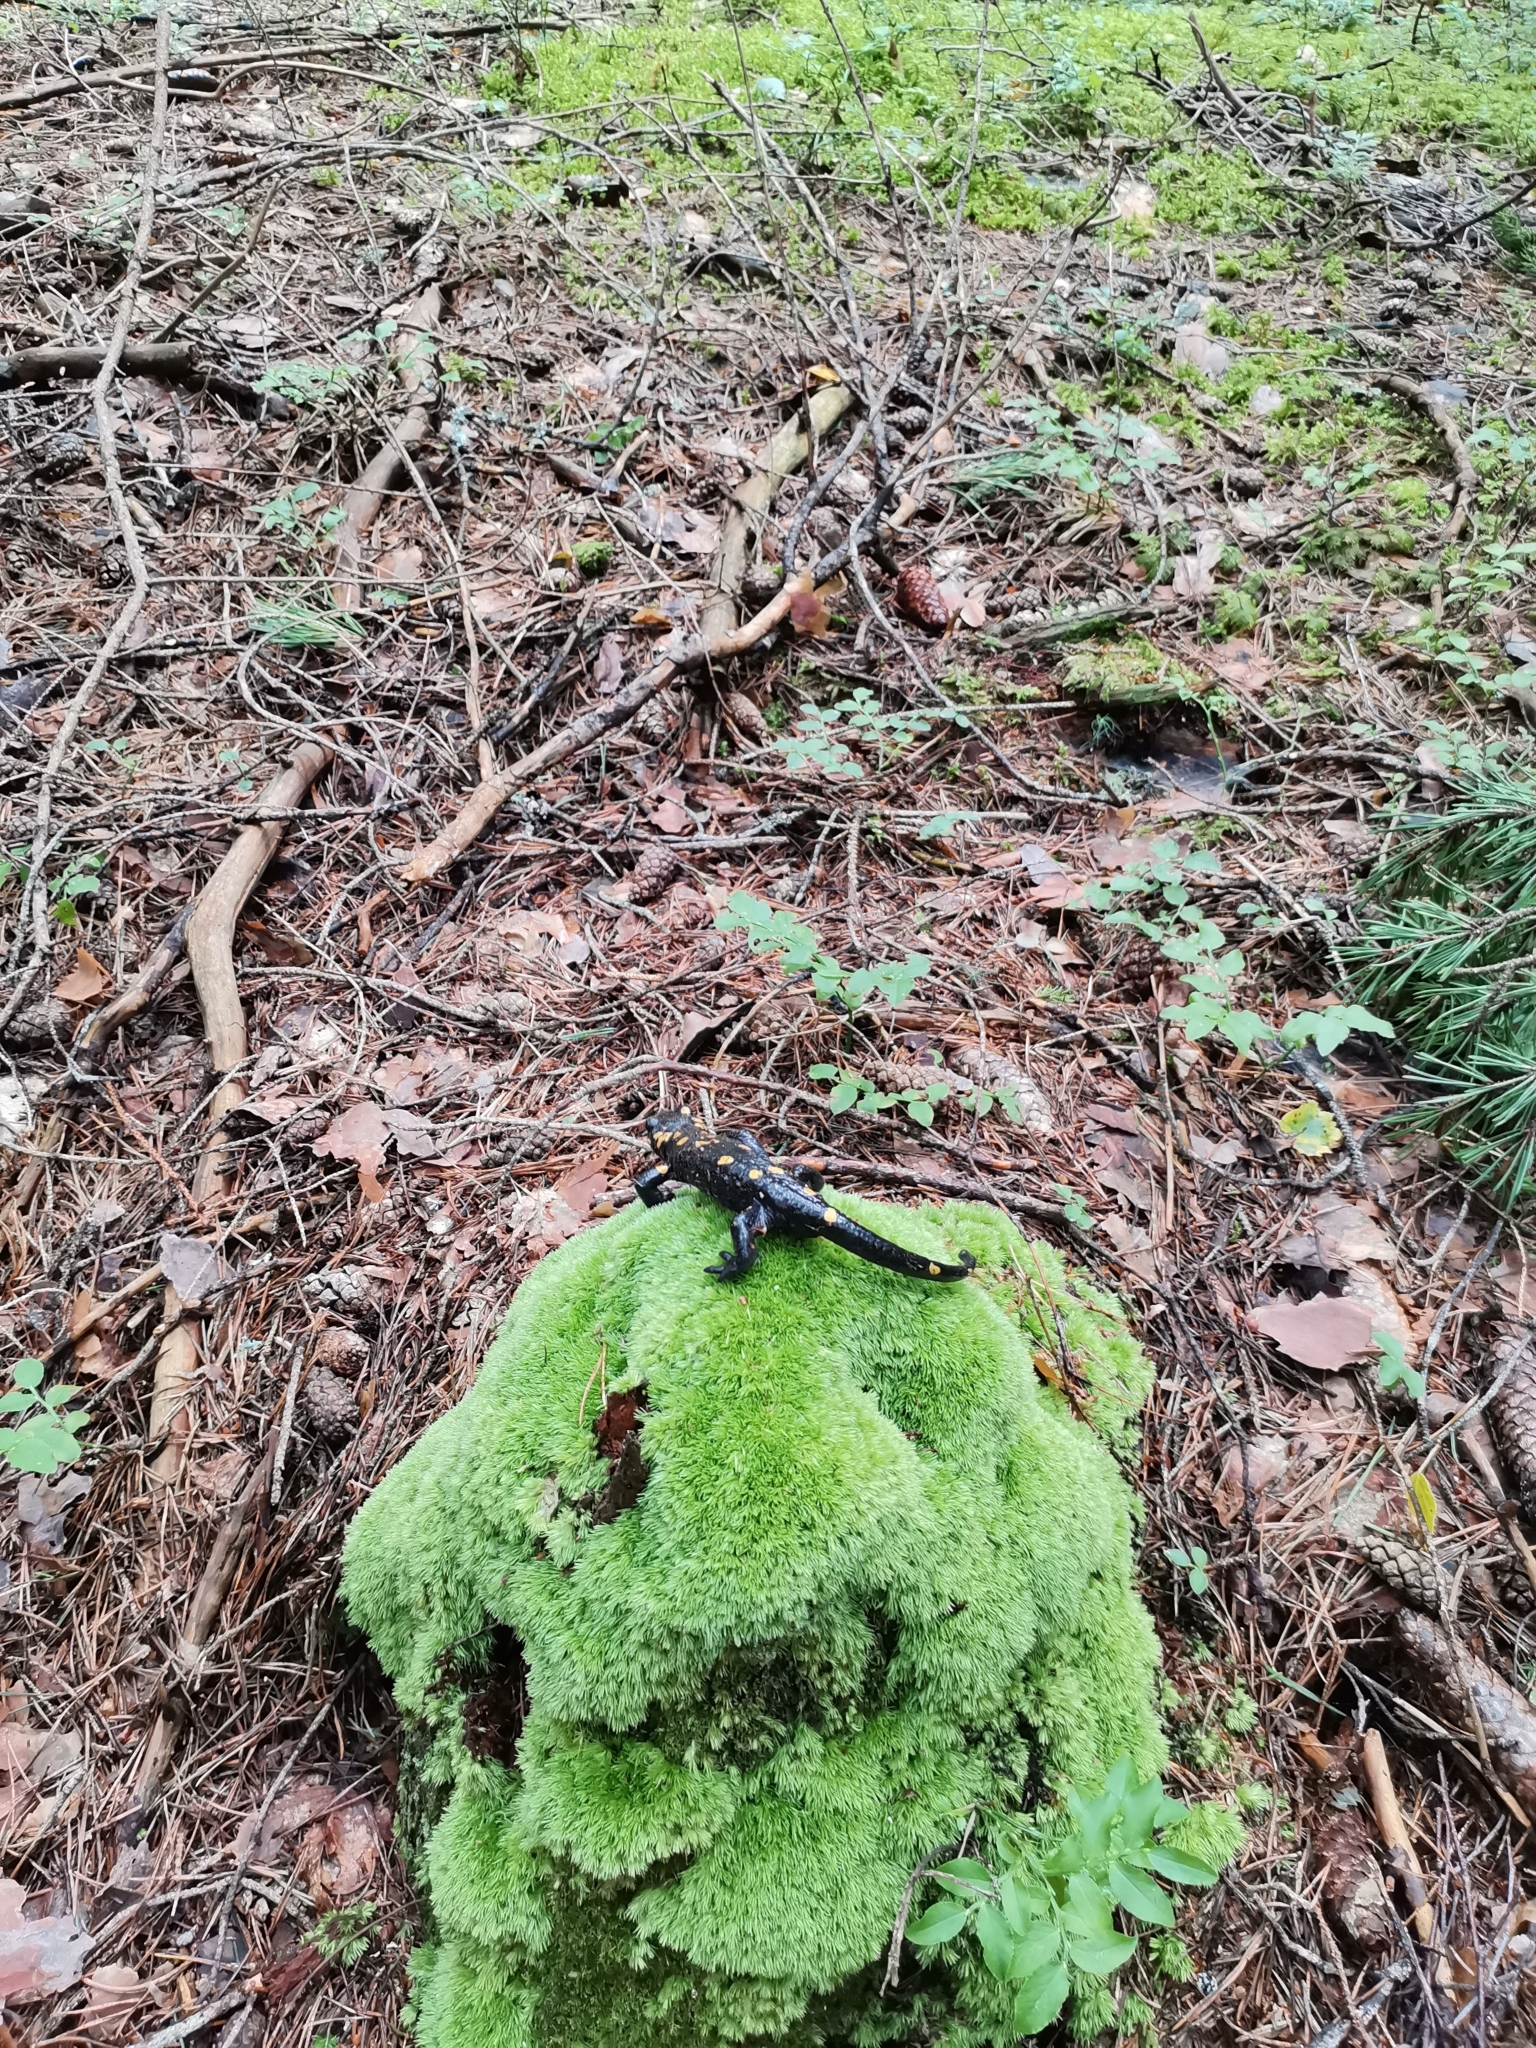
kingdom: Animalia
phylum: Chordata
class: Amphibia
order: Caudata
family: Salamandridae
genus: Salamandra
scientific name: Salamandra salamandra
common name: Fire salamander
